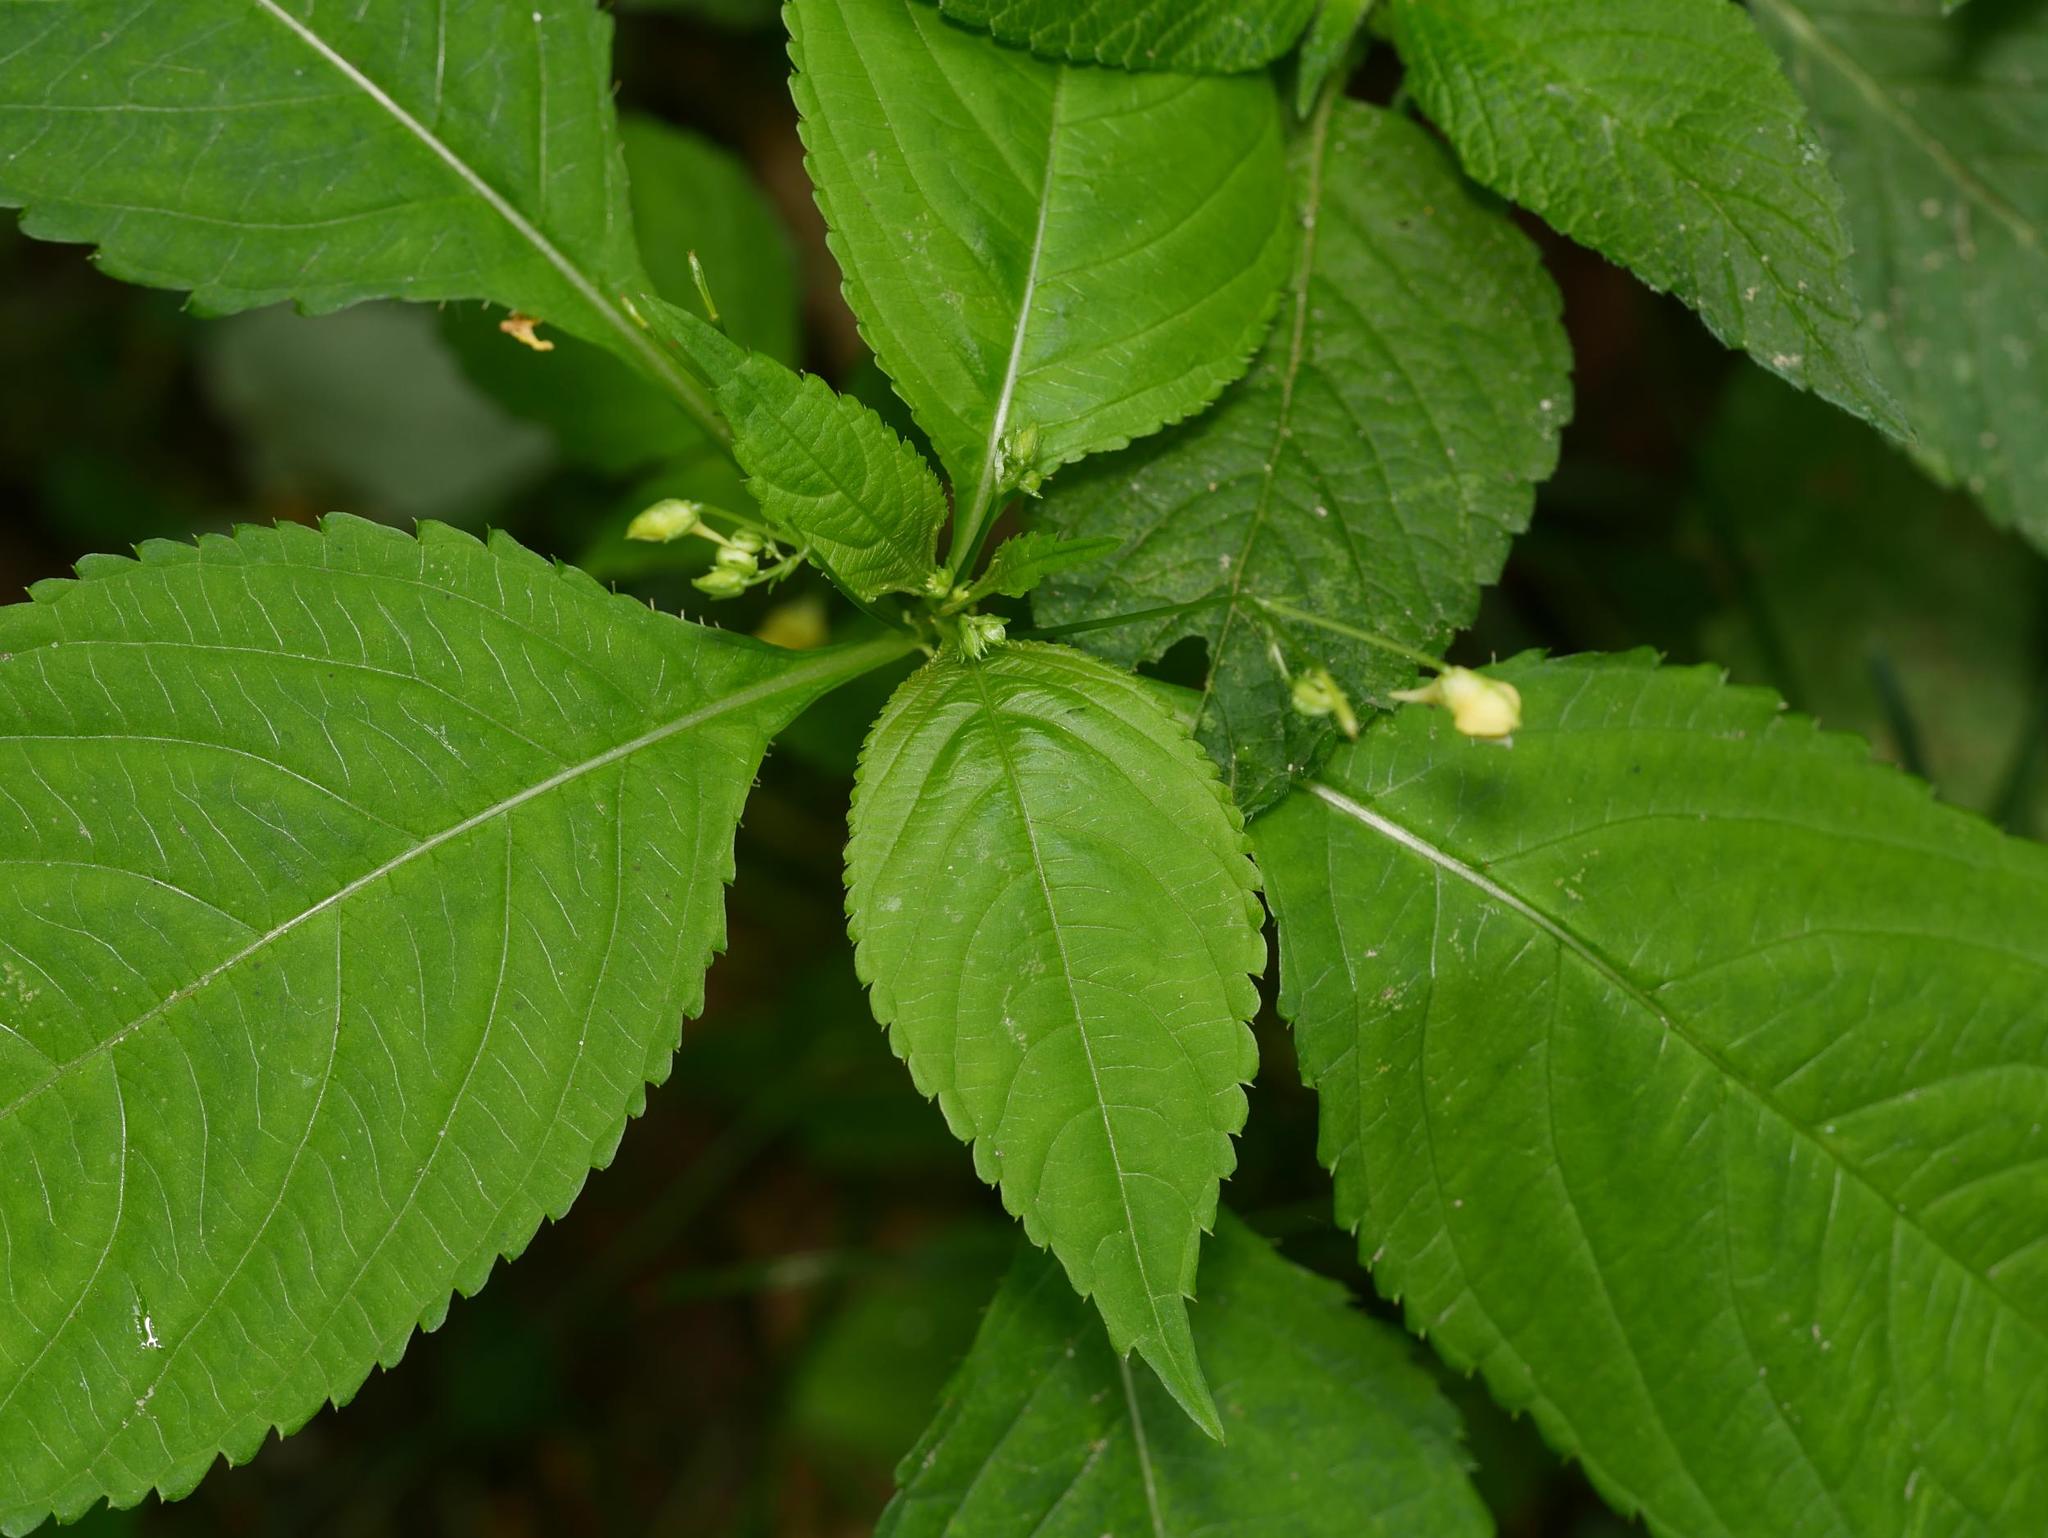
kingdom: Plantae
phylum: Tracheophyta
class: Magnoliopsida
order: Ericales
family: Balsaminaceae
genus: Impatiens
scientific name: Impatiens parviflora
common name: Small balsam
